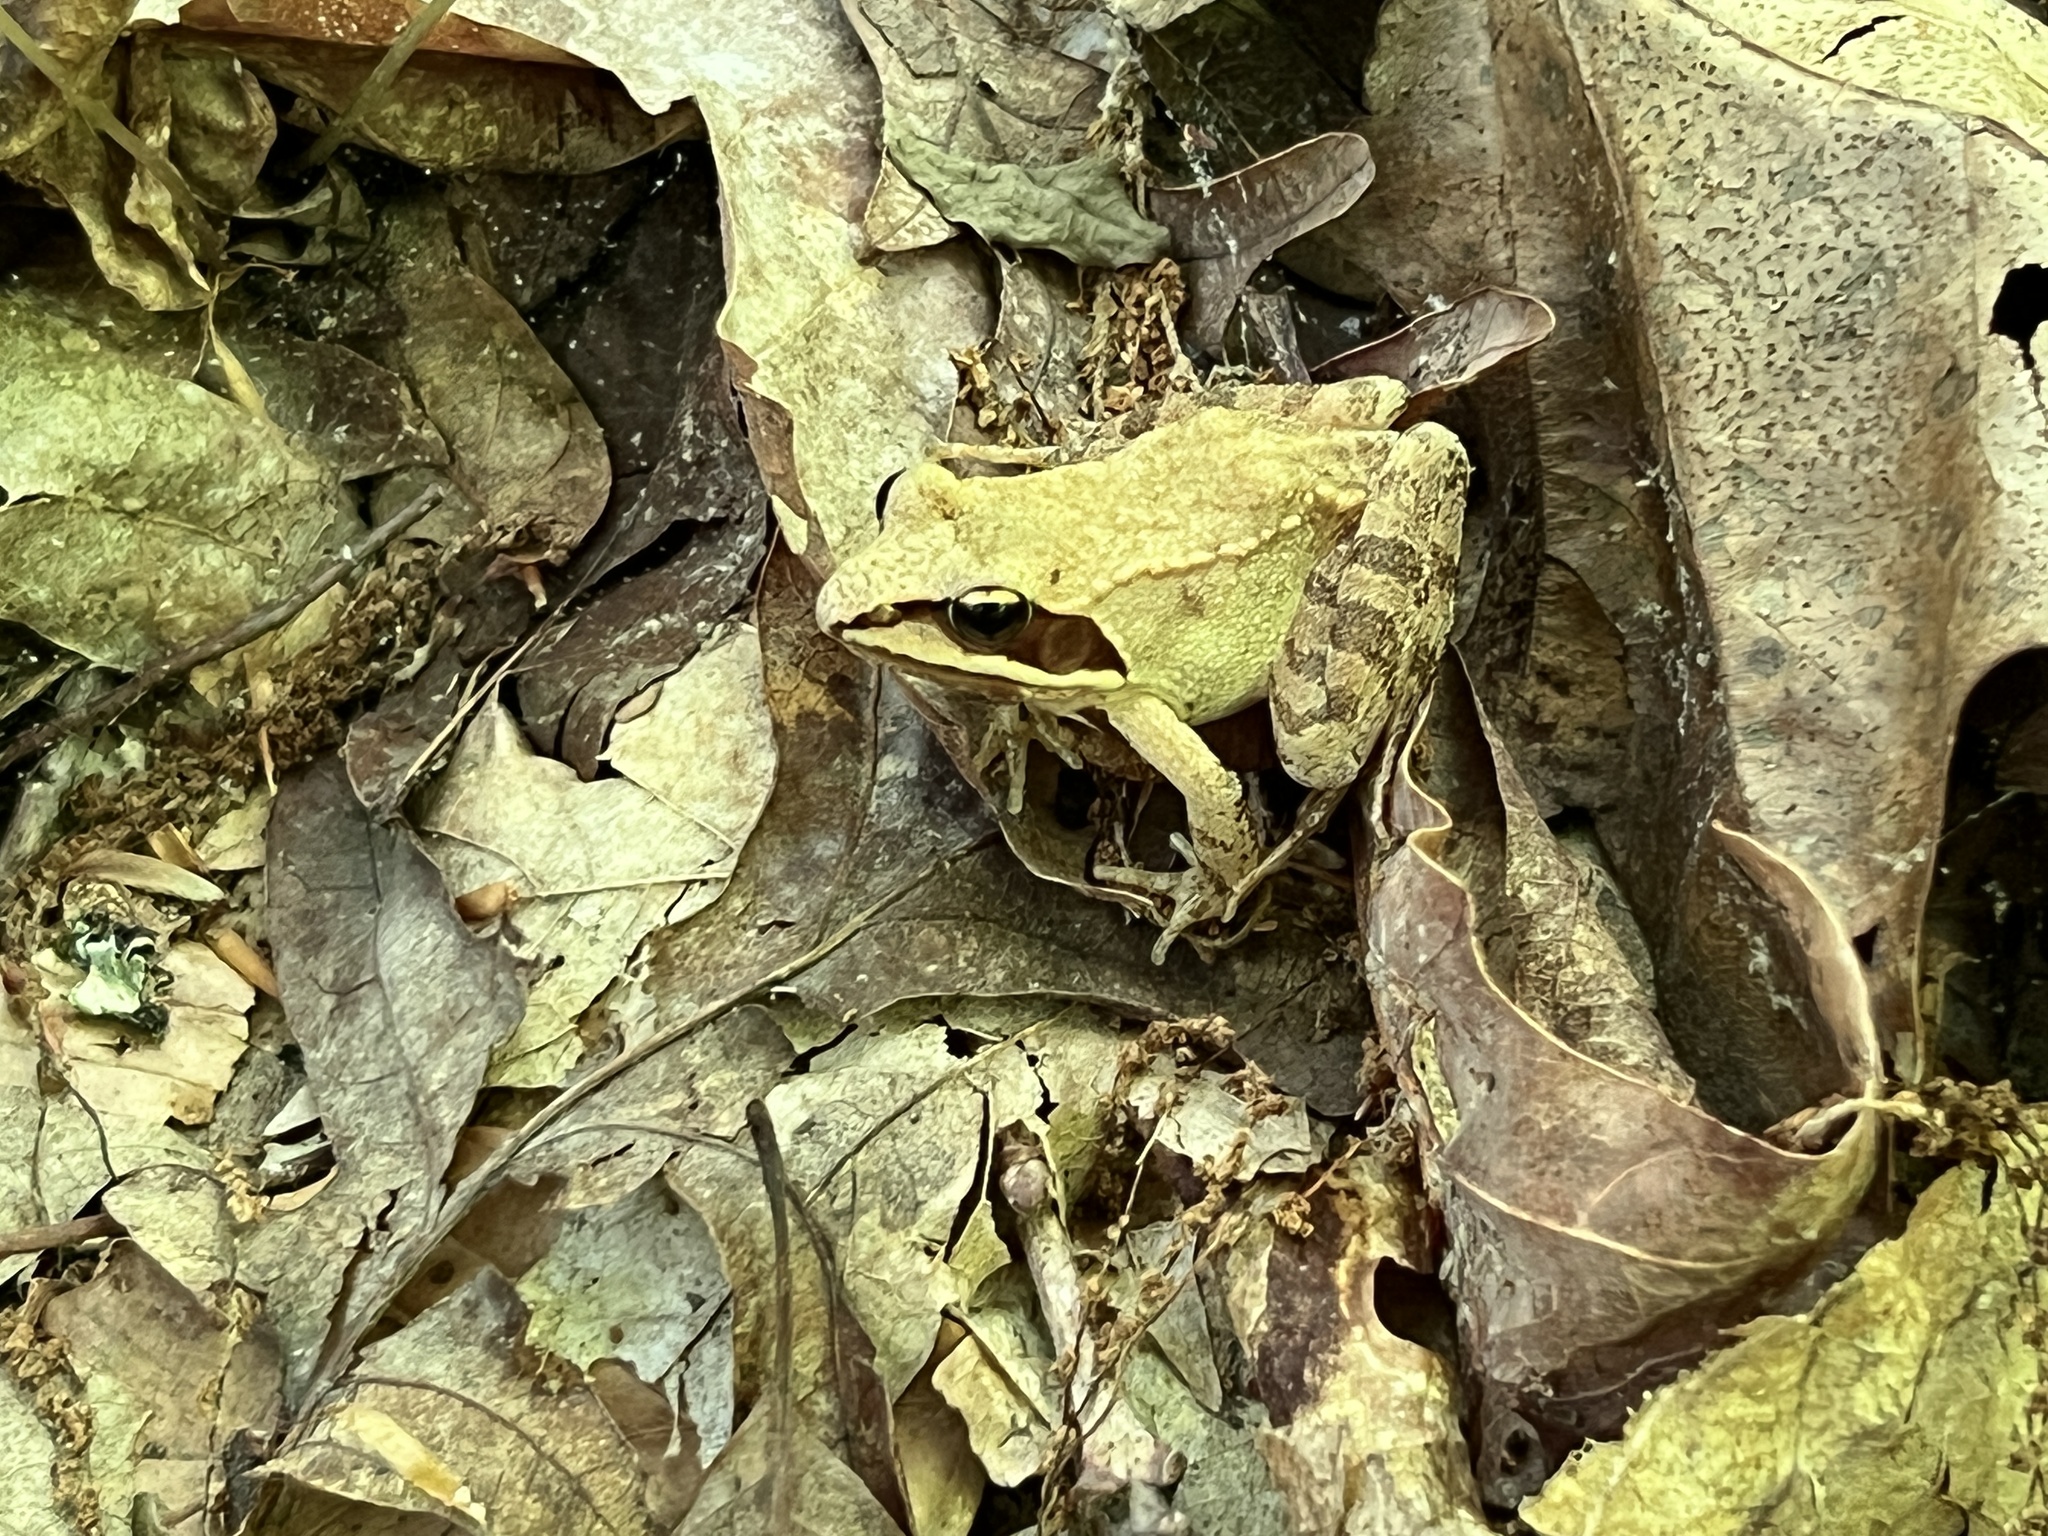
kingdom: Animalia
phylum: Chordata
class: Amphibia
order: Anura
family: Ranidae
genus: Lithobates
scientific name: Lithobates sylvaticus
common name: Wood frog
